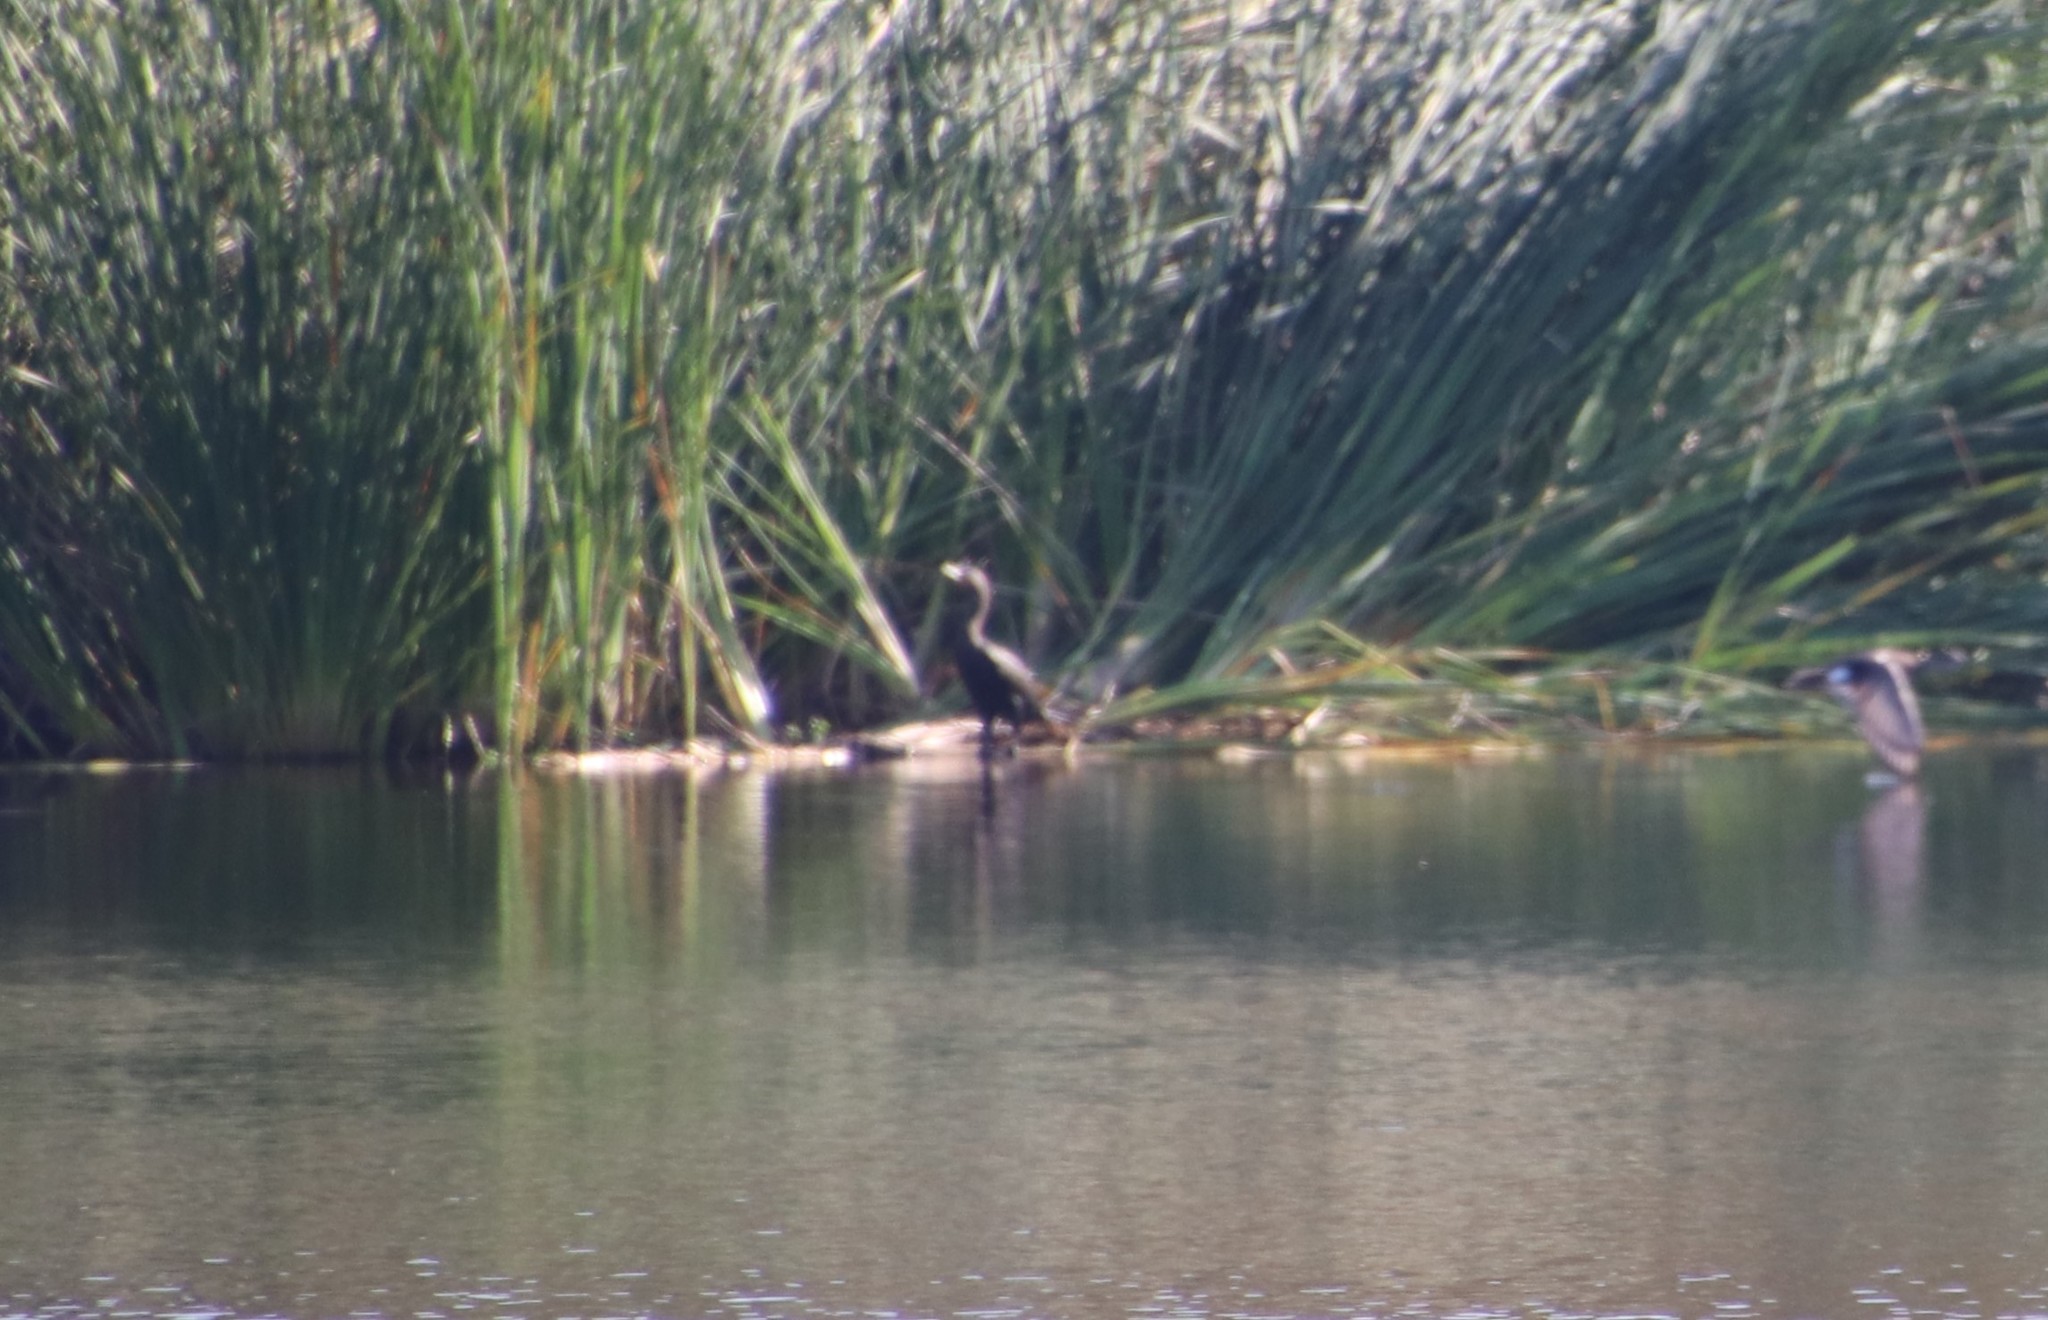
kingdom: Animalia
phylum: Chordata
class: Aves
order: Suliformes
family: Phalacrocoracidae
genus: Phalacrocorax
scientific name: Phalacrocorax auritus
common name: Double-crested cormorant
